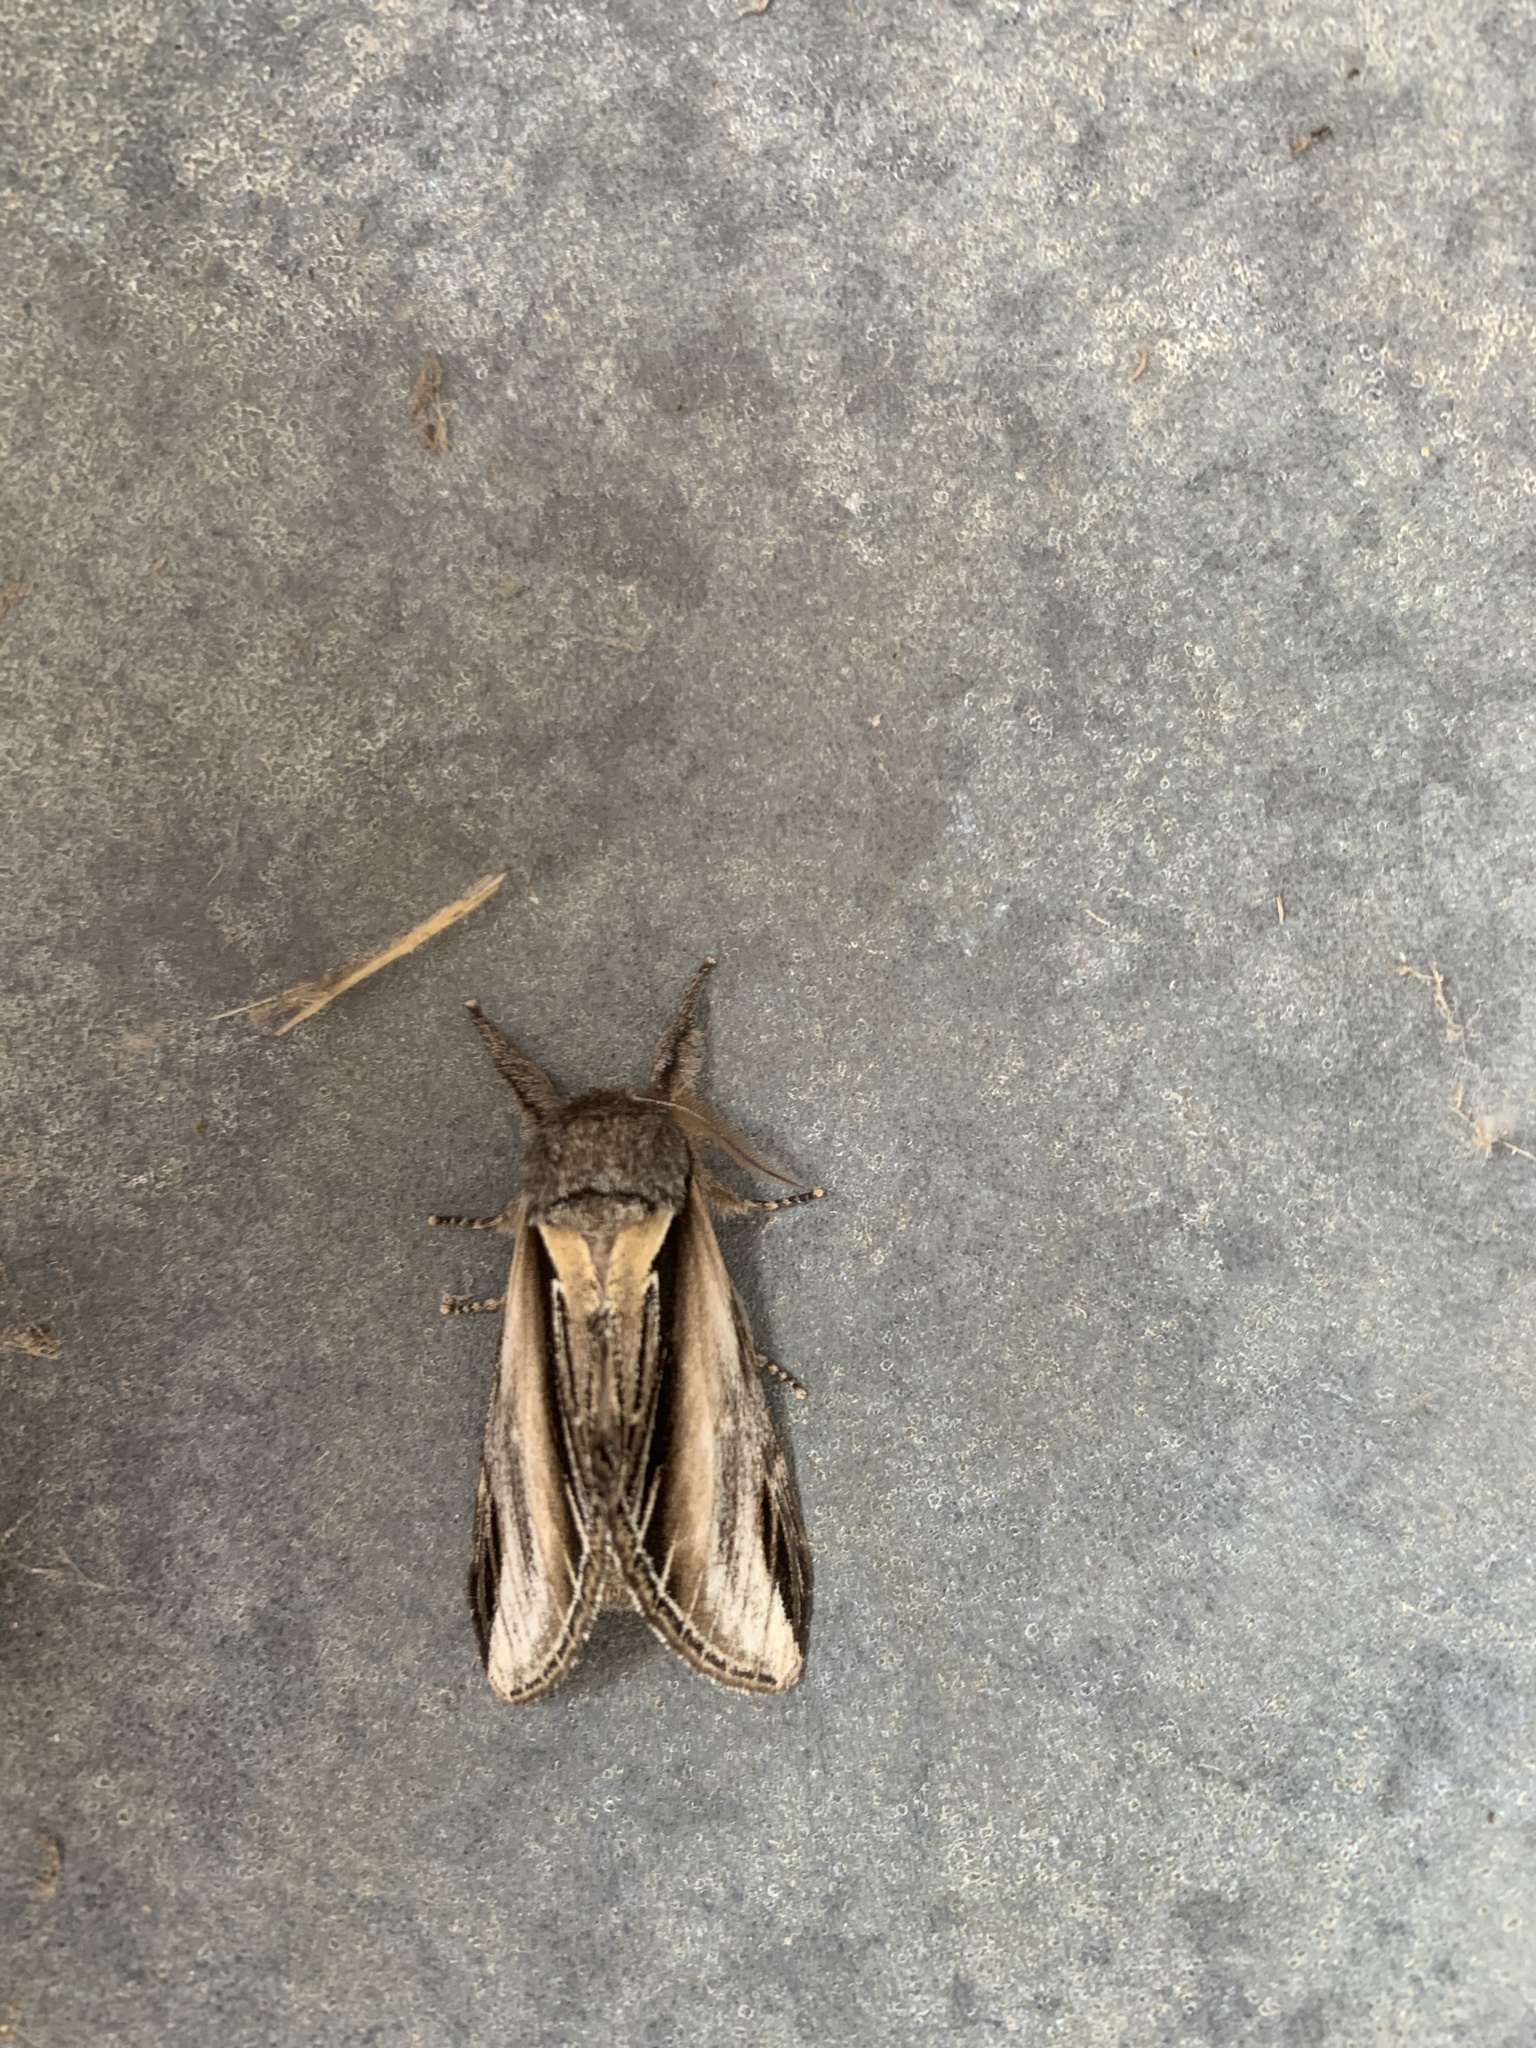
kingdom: Animalia
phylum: Arthropoda
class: Insecta
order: Lepidoptera
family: Notodontidae
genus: Pheosia
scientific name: Pheosia tremula
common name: Swallow prominent
